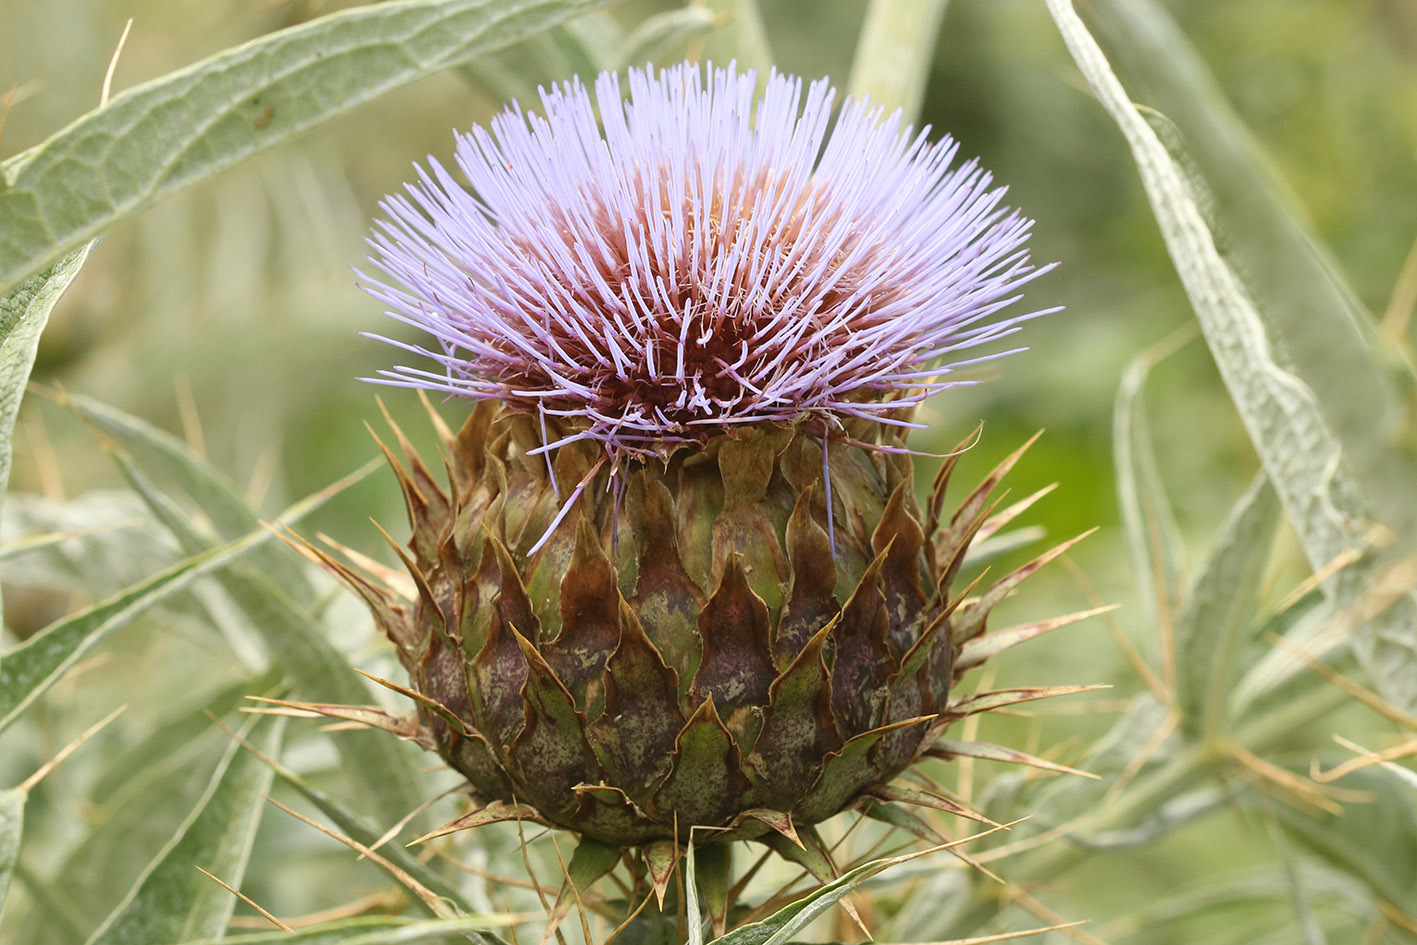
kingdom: Plantae
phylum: Tracheophyta
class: Magnoliopsida
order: Asterales
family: Asteraceae
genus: Cynara
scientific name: Cynara cardunculus
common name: Globe artichoke
